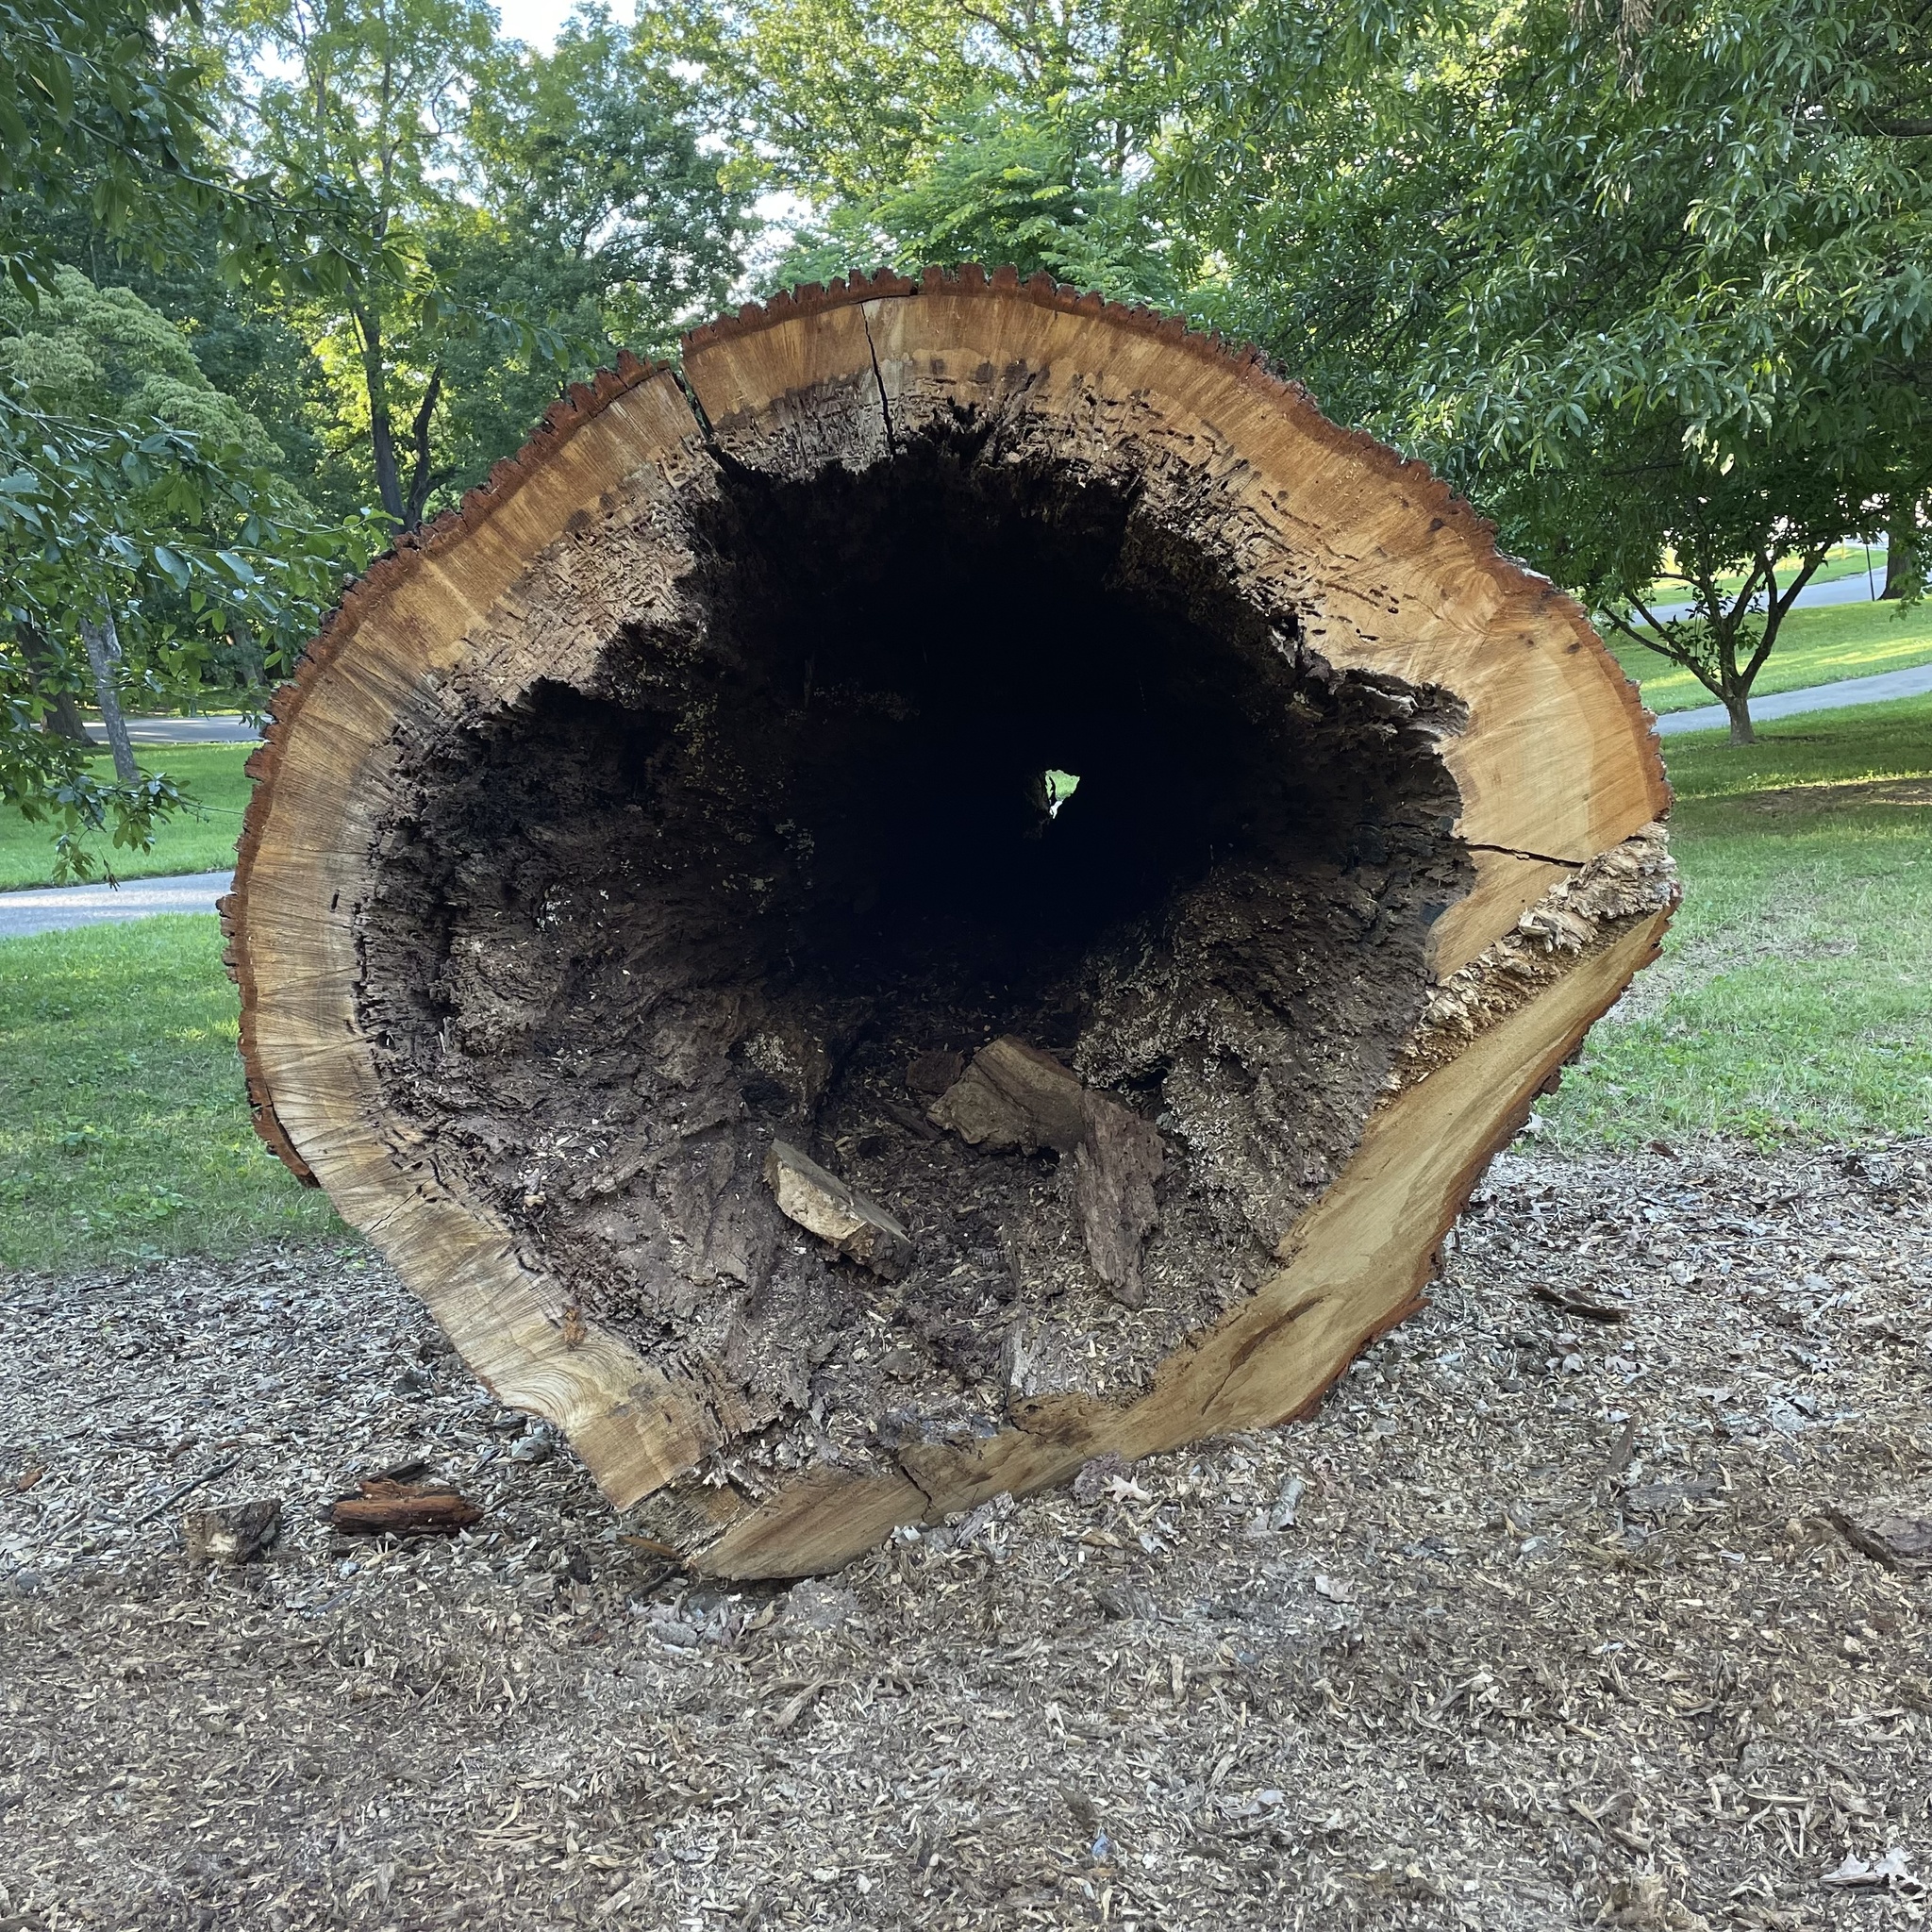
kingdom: Plantae
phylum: Tracheophyta
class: Magnoliopsida
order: Fagales
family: Fagaceae
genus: Quercus
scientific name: Quercus alba
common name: White oak
